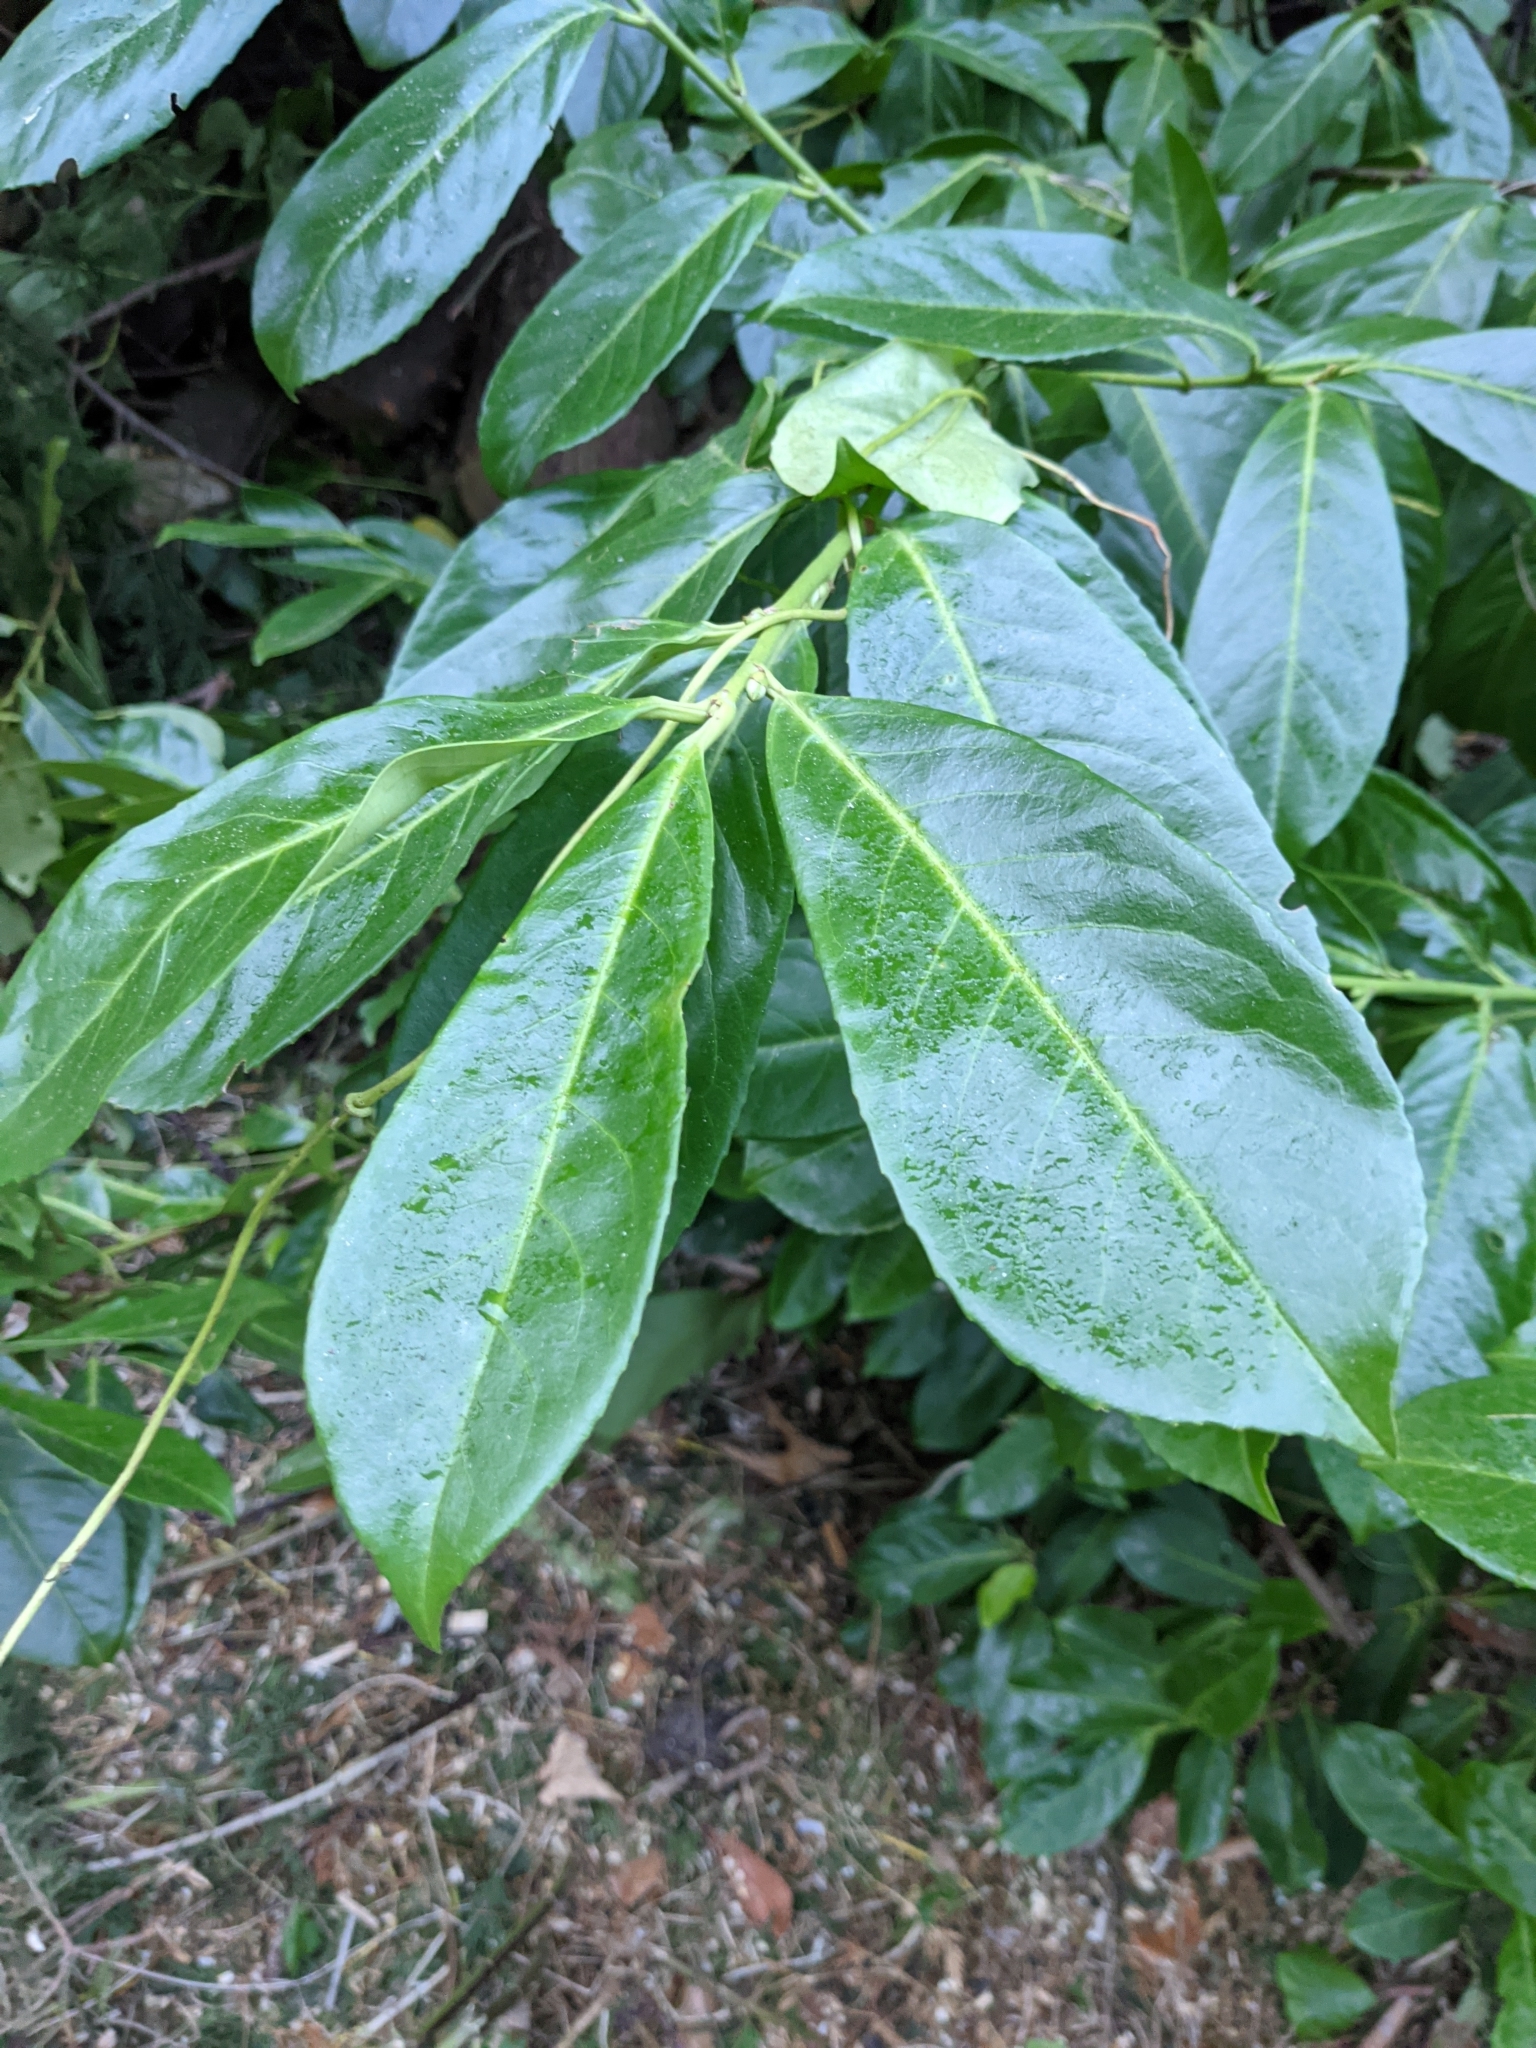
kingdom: Plantae
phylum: Tracheophyta
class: Magnoliopsida
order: Rosales
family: Rosaceae
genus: Prunus
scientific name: Prunus laurocerasus
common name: Cherry laurel
